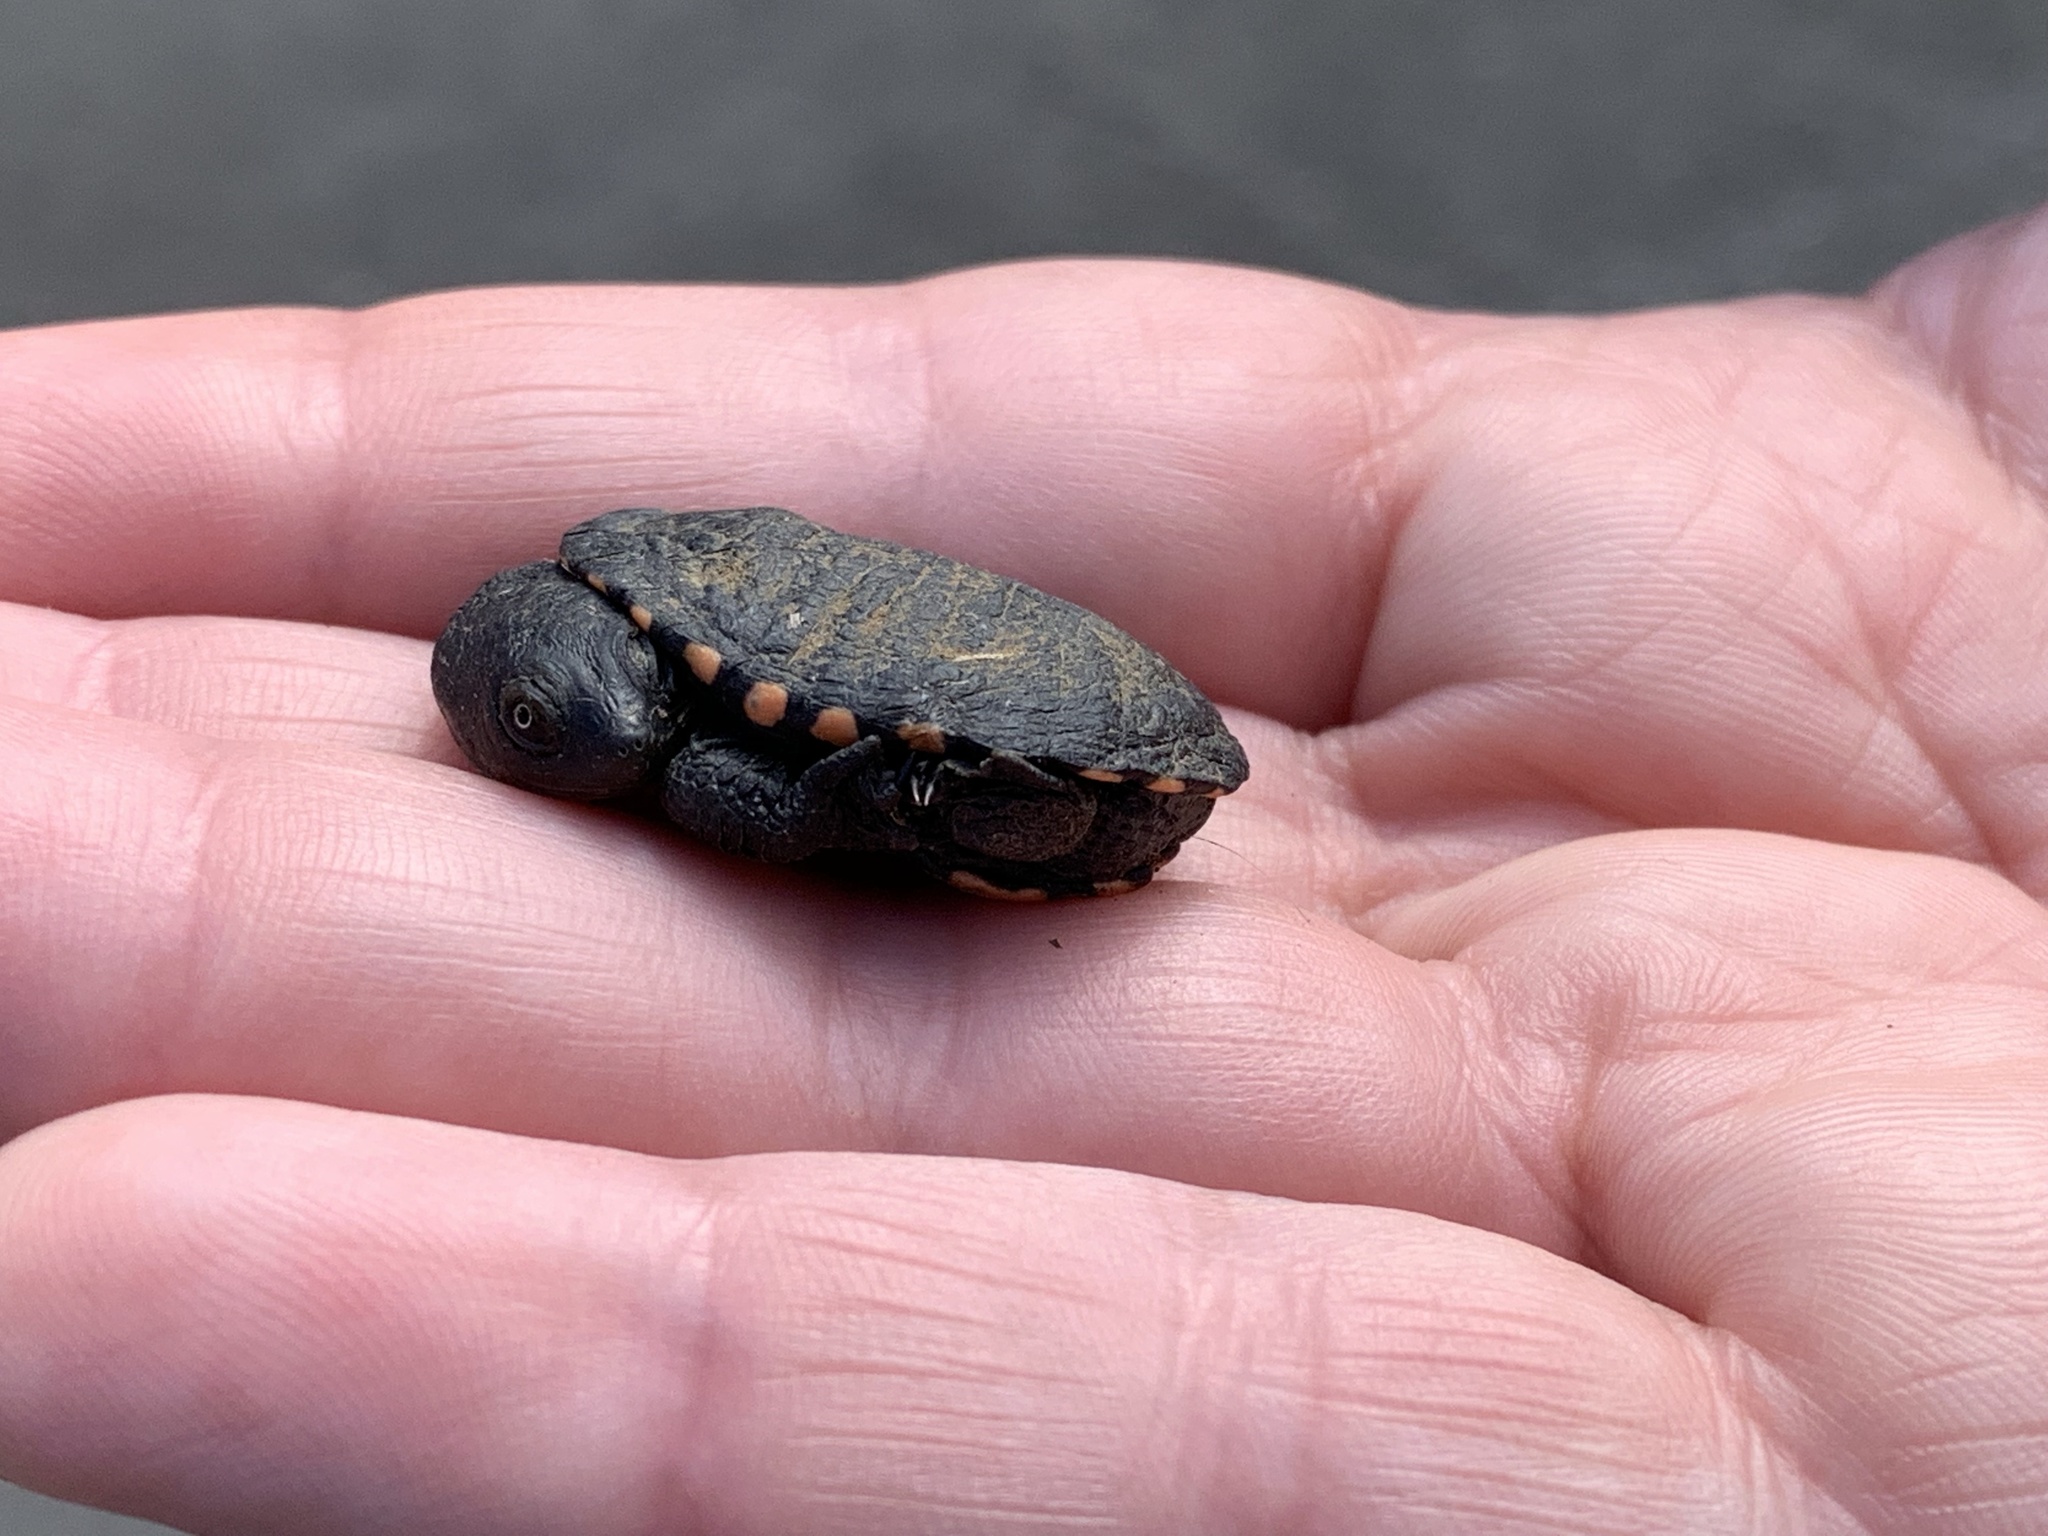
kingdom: Animalia
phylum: Chordata
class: Testudines
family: Chelidae
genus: Chelodina
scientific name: Chelodina longicollis
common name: Eastern snake-necked turtle
